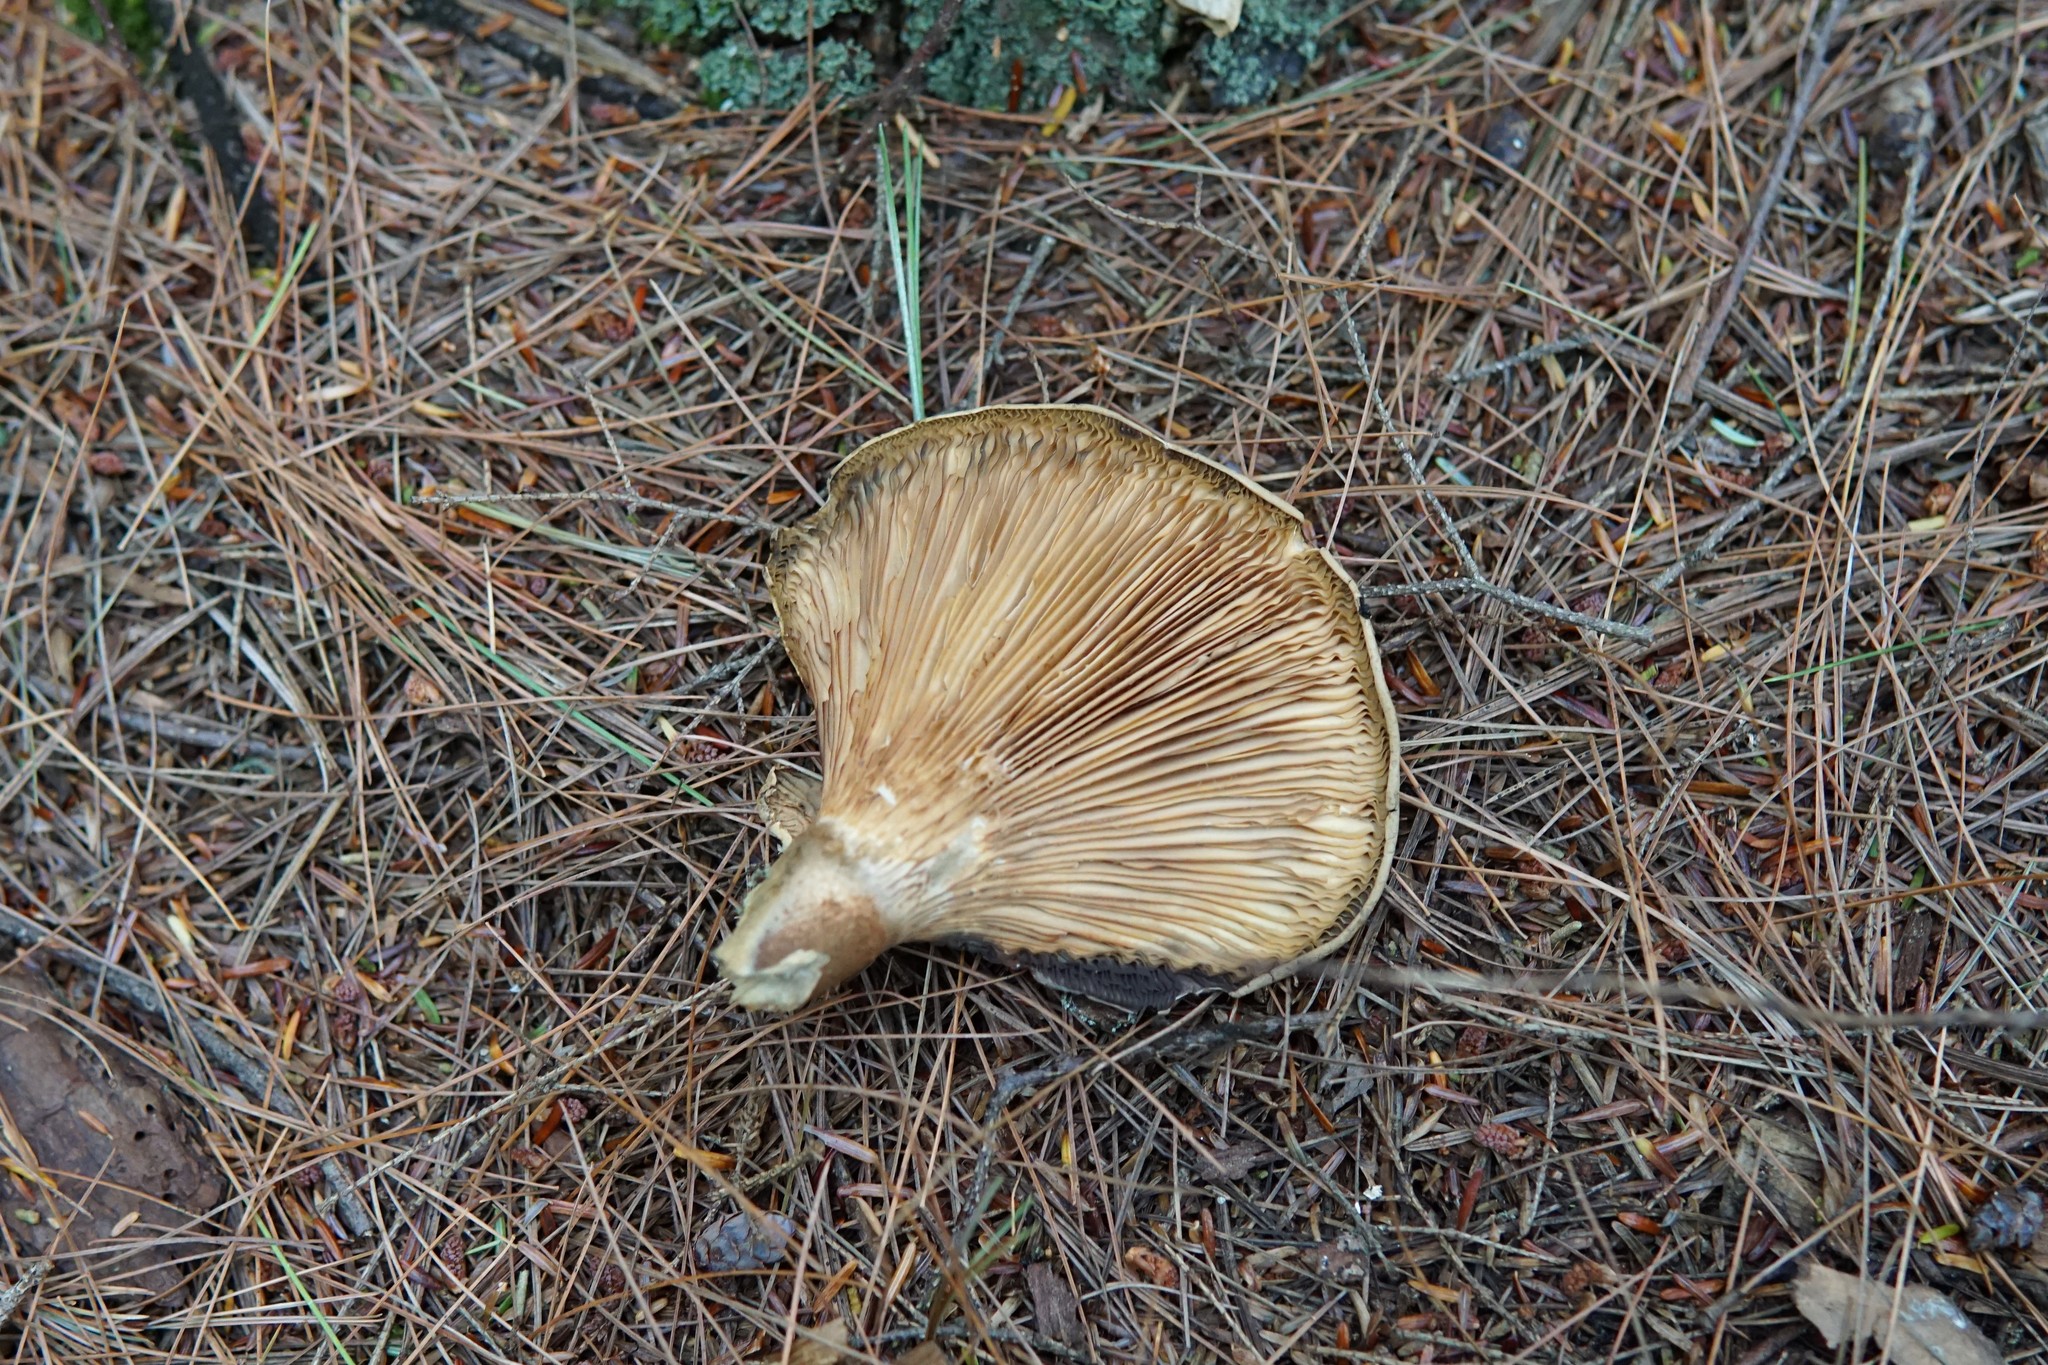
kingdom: Fungi
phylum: Basidiomycota
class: Agaricomycetes
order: Boletales
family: Tapinellaceae
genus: Tapinella
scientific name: Tapinella atrotomentosa
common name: Velvet rollrim
